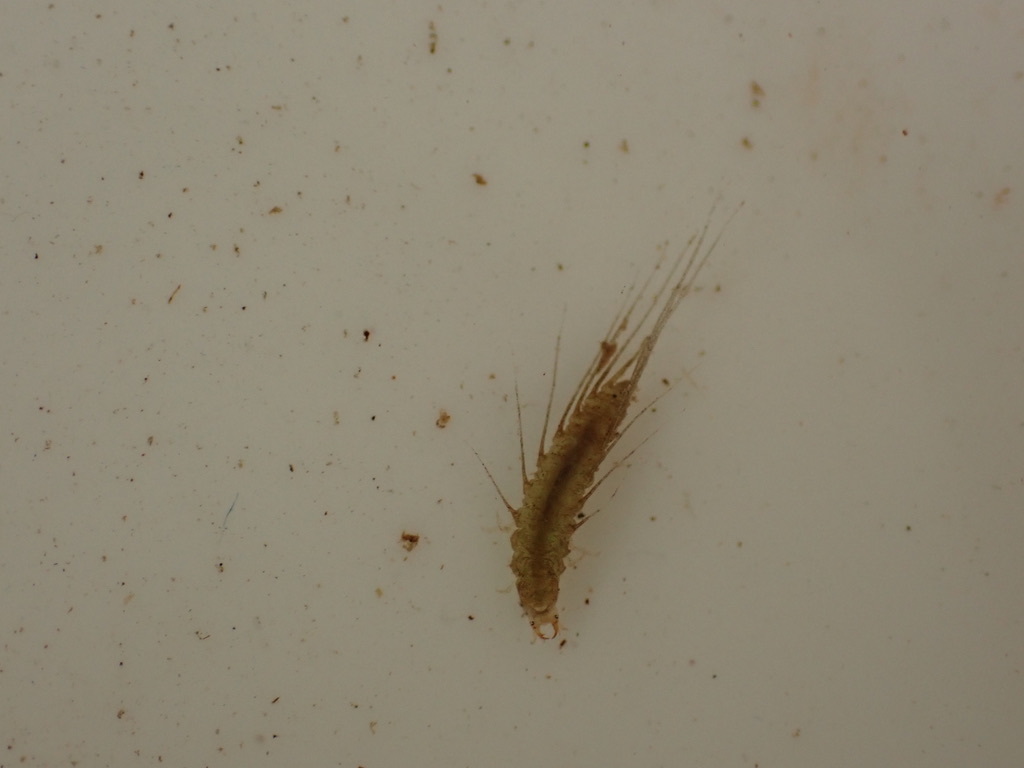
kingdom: Animalia
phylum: Arthropoda
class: Insecta
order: Coleoptera
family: Hydrophilidae
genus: Berosus
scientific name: Berosus
